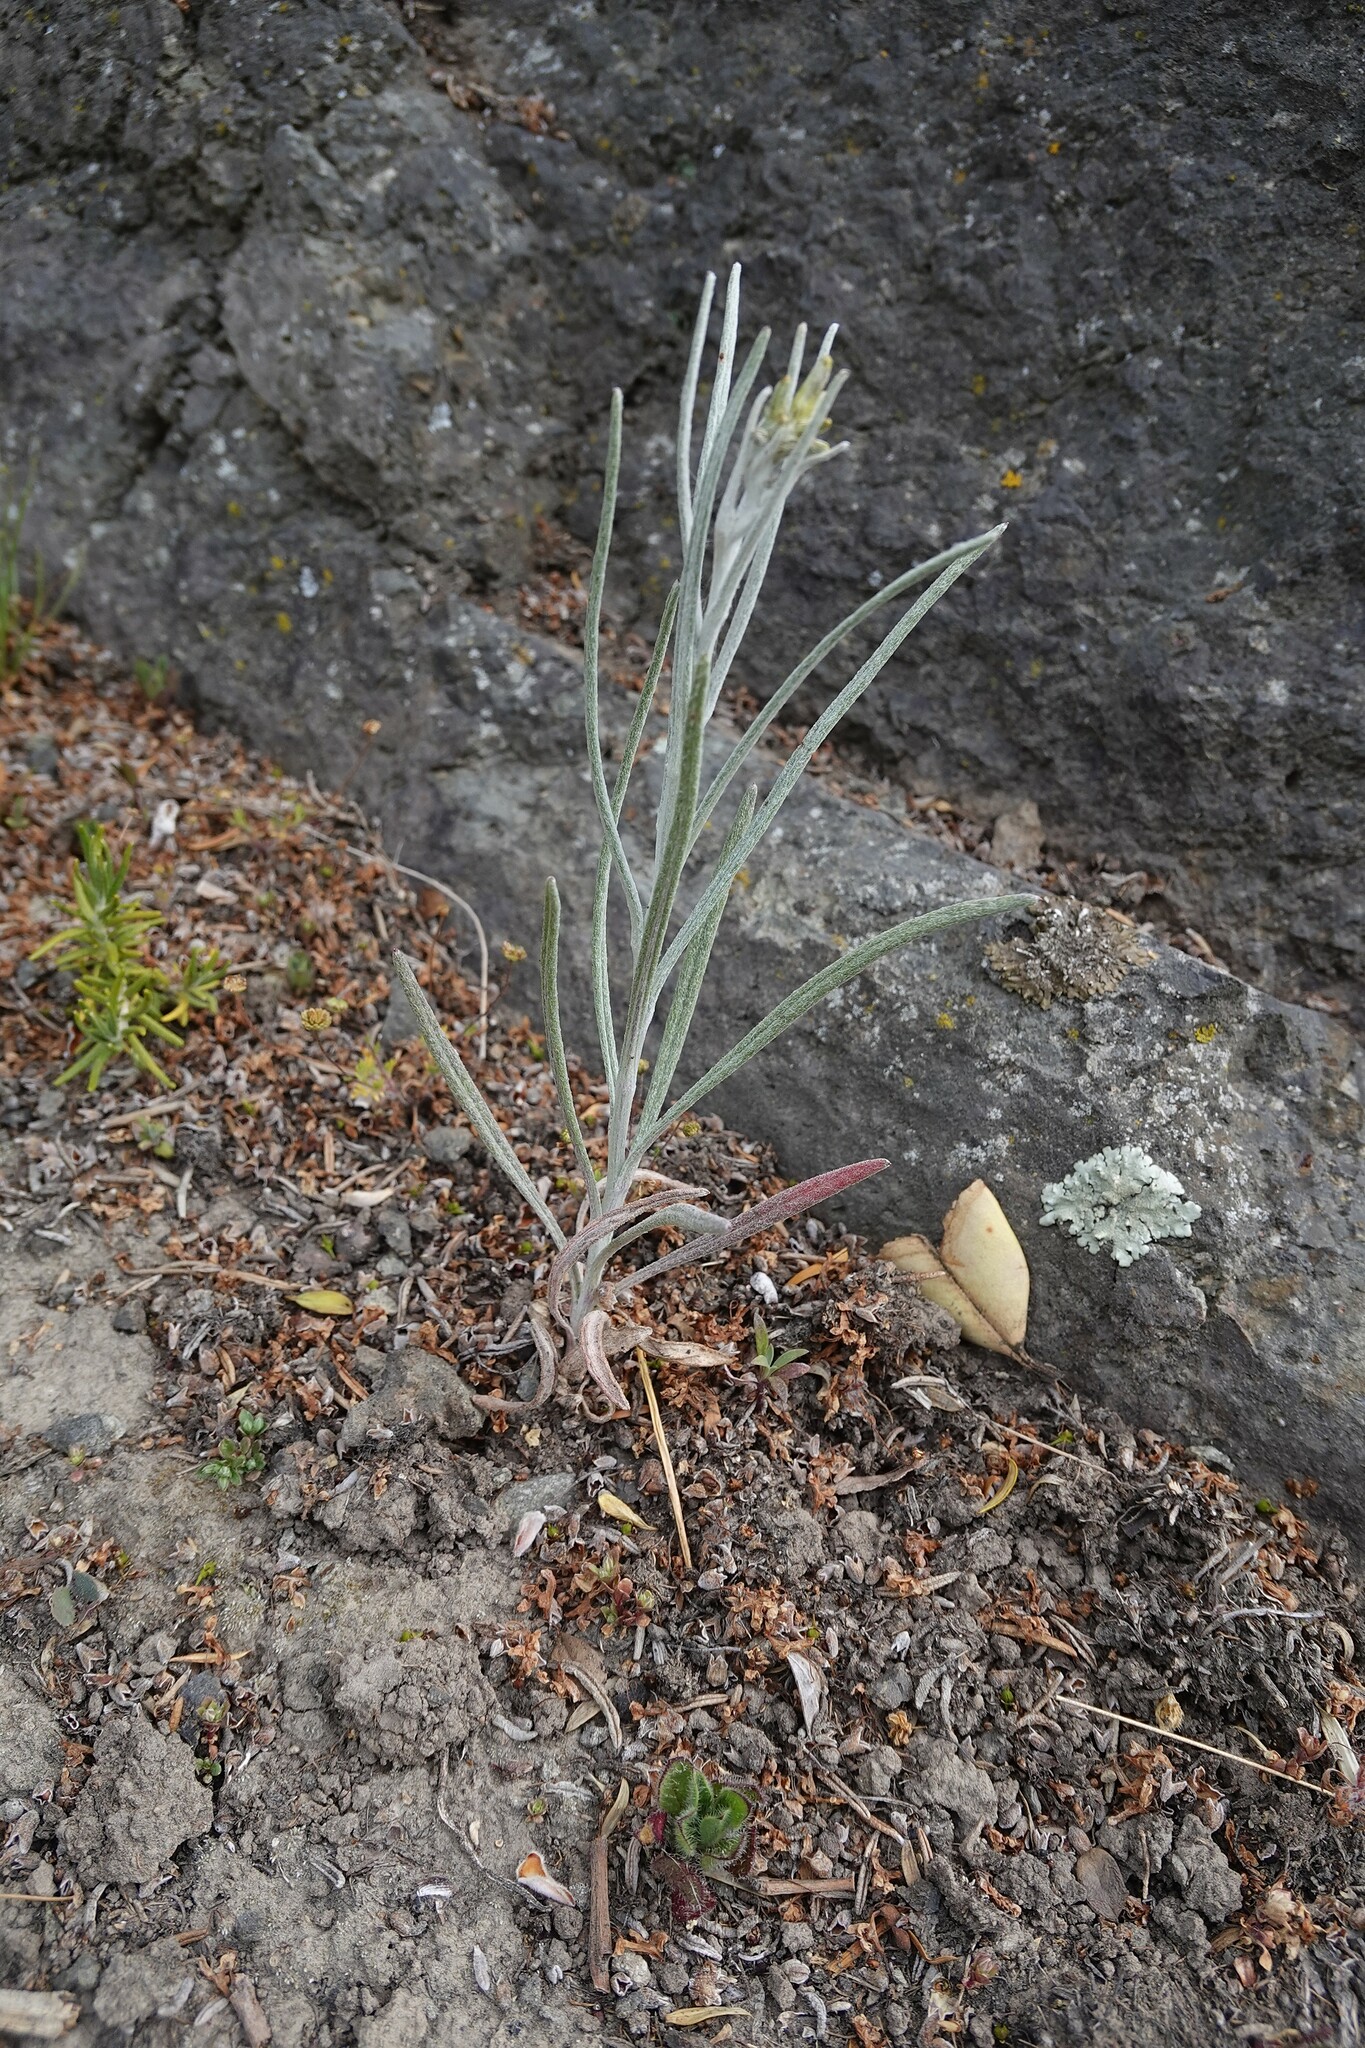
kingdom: Plantae
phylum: Tracheophyta
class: Magnoliopsida
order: Asterales
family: Asteraceae
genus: Senecio
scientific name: Senecio quadridentatus
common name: Cotton fireweed
